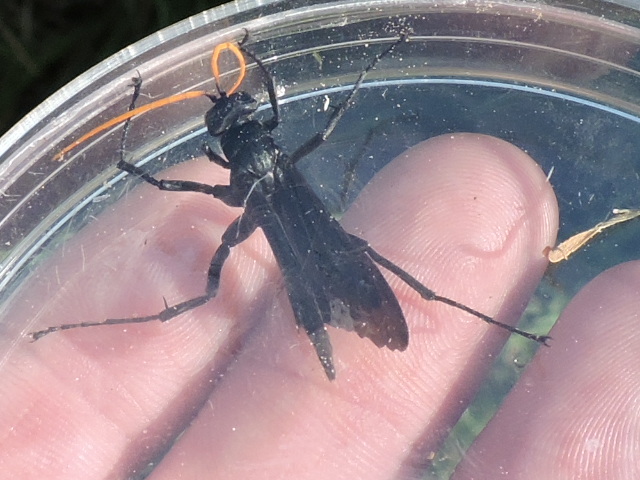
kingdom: Animalia
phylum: Arthropoda
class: Insecta
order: Hymenoptera
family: Pompilidae
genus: Entypus
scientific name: Entypus
